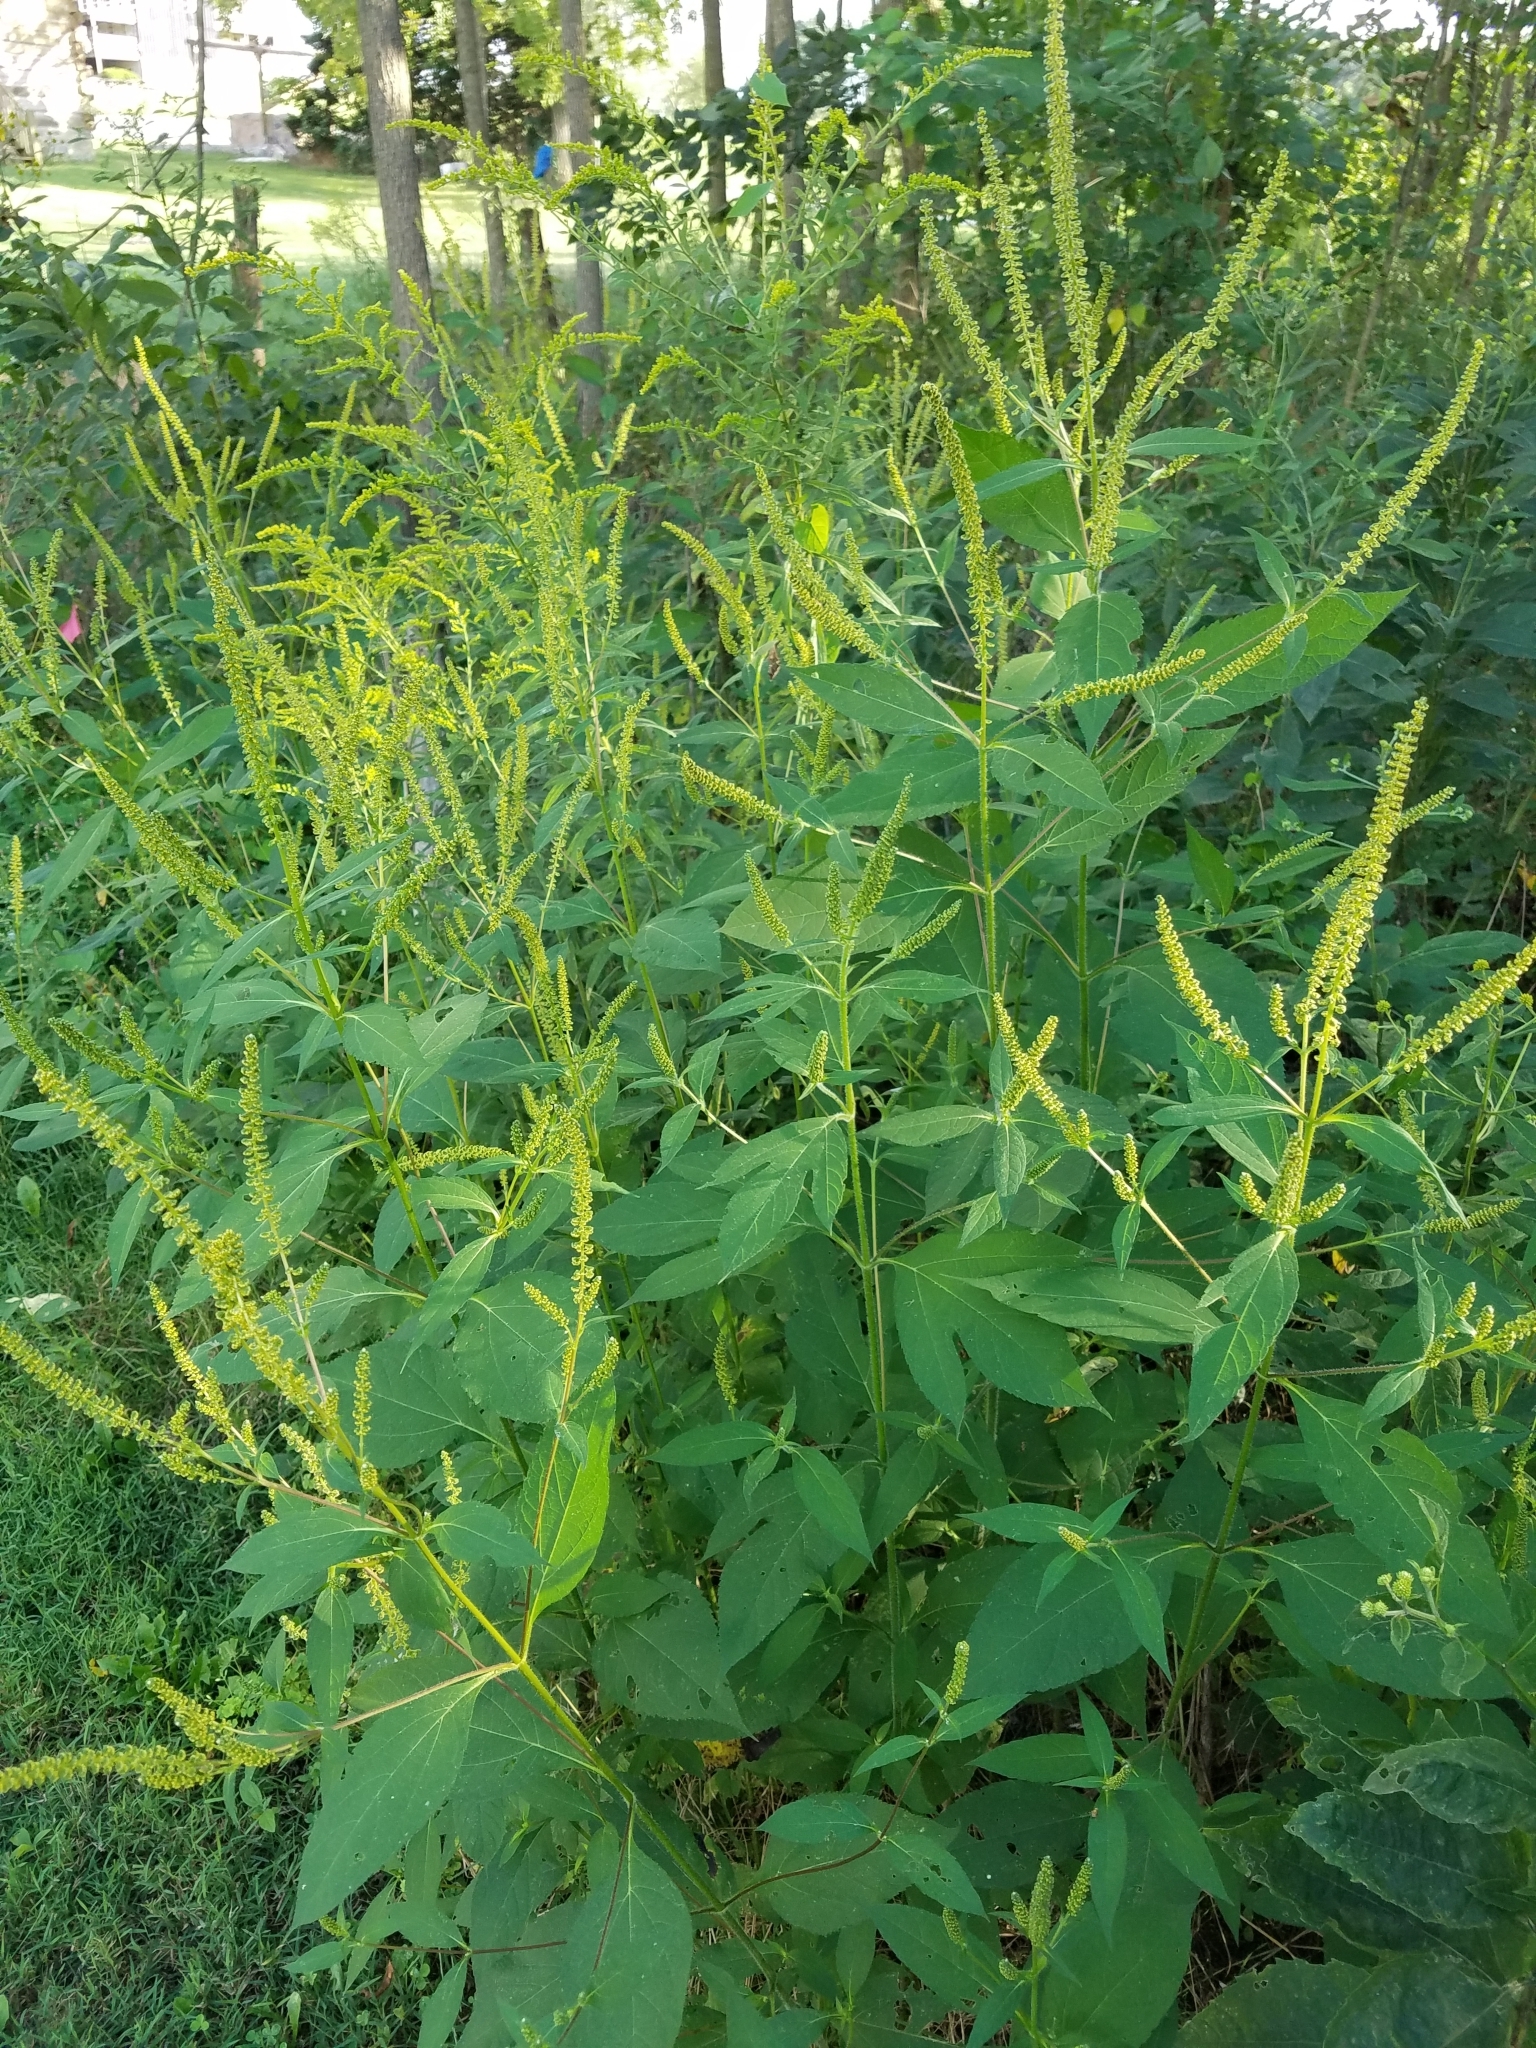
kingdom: Plantae
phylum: Tracheophyta
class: Magnoliopsida
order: Asterales
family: Asteraceae
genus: Ambrosia
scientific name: Ambrosia trifida
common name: Giant ragweed
